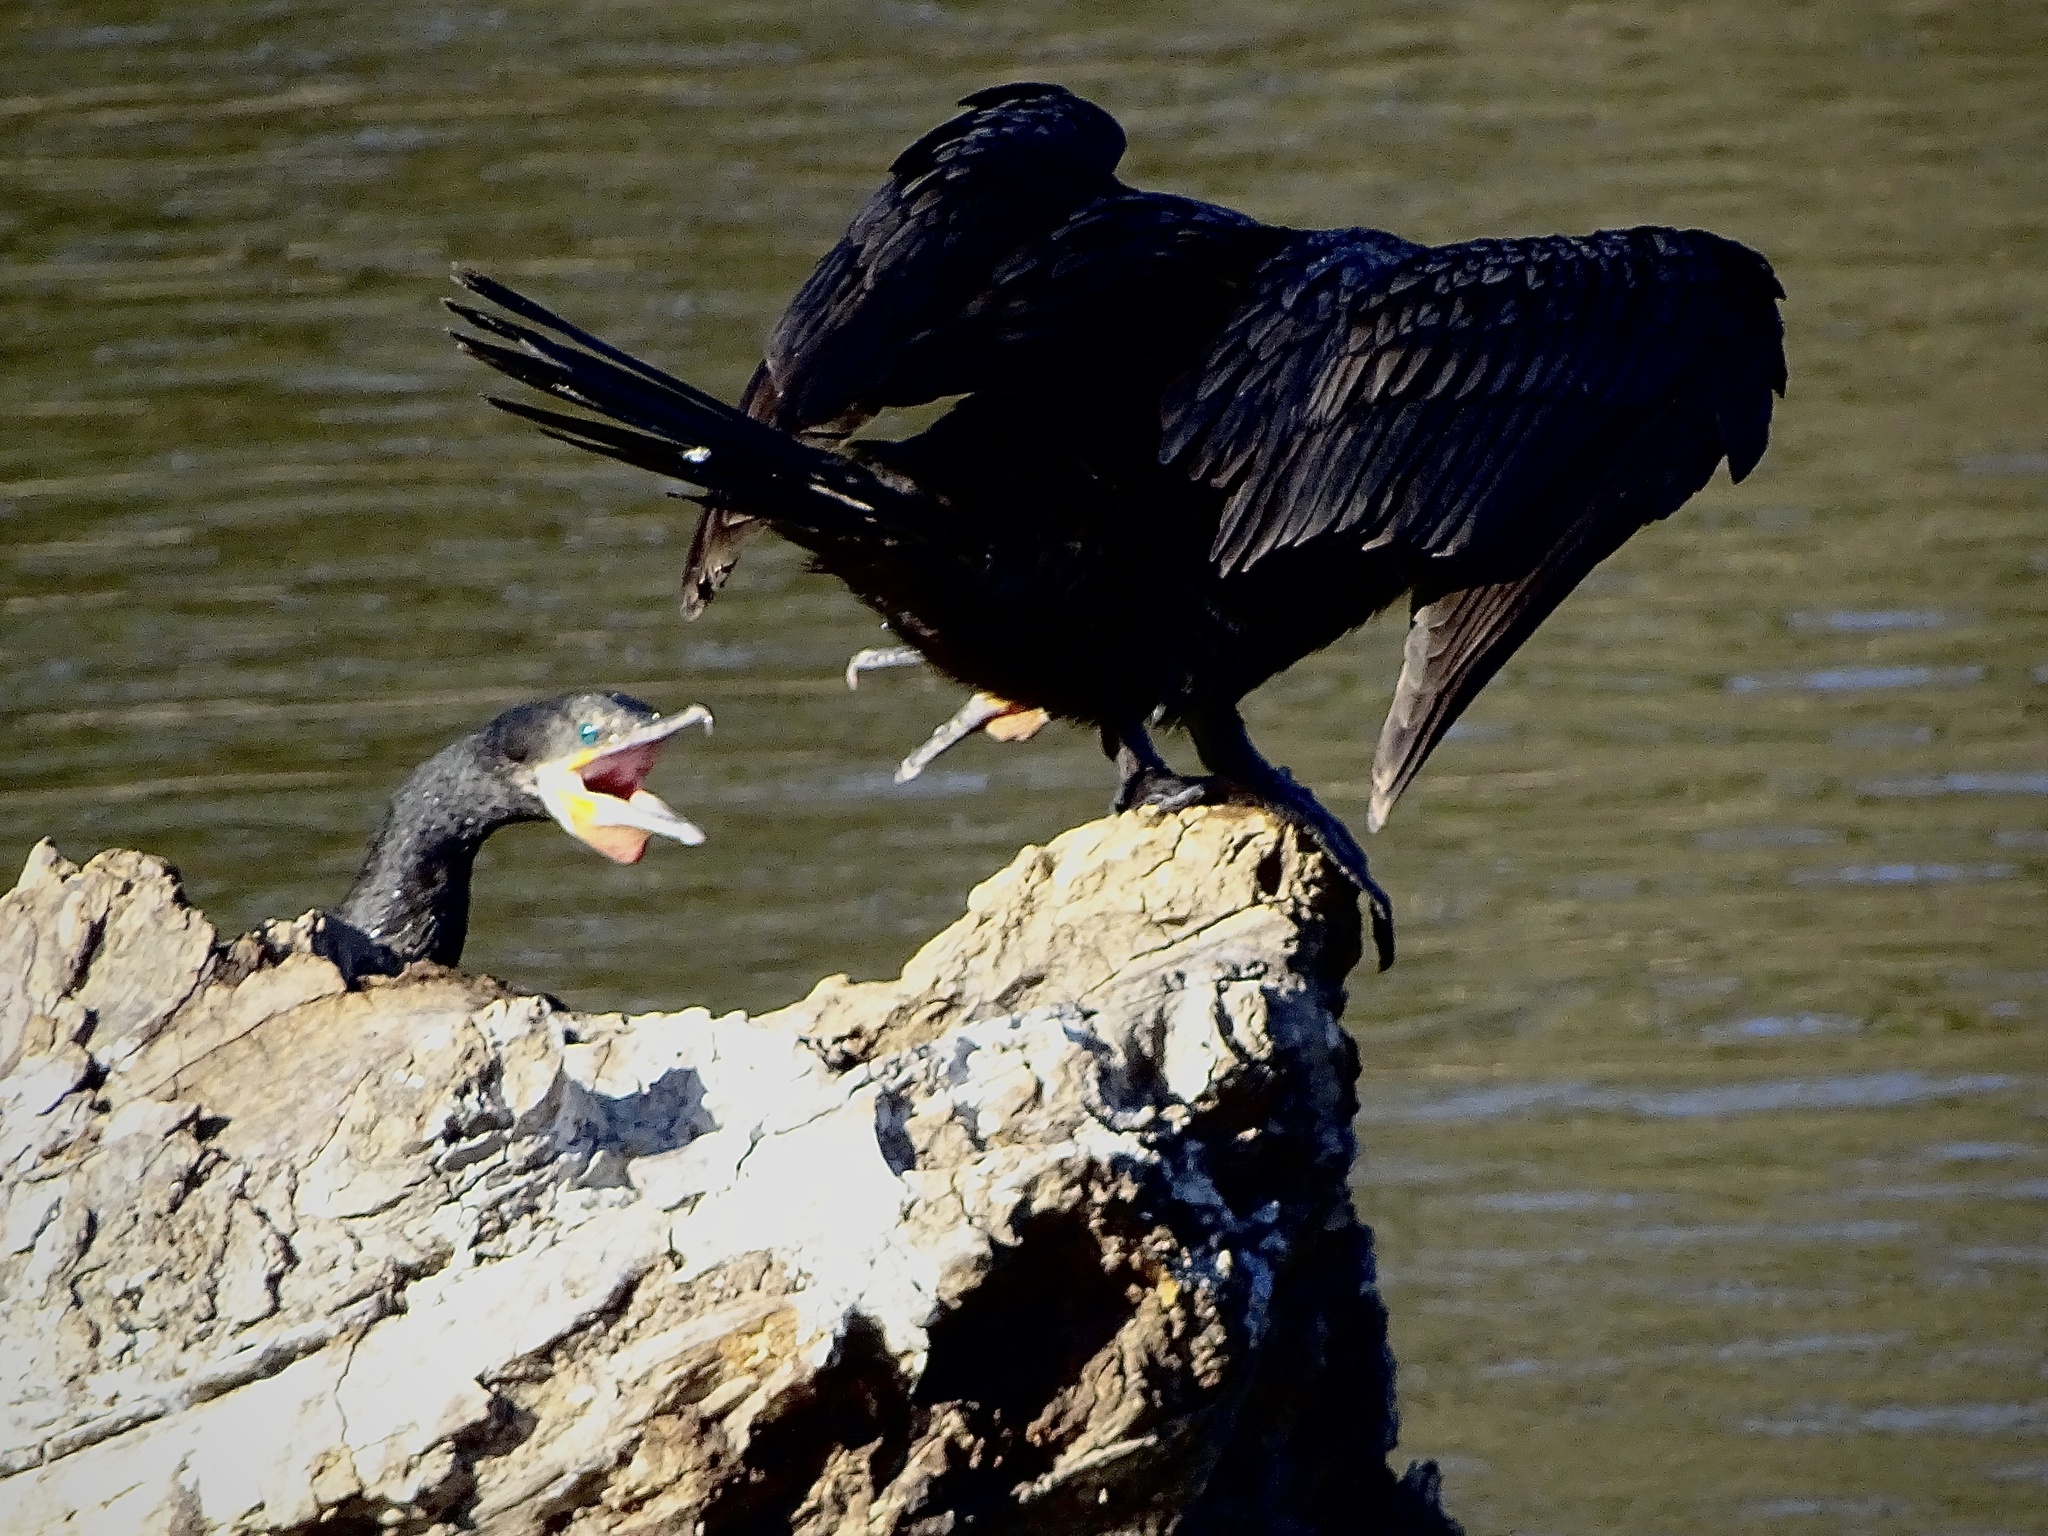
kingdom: Animalia
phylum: Chordata
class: Aves
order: Suliformes
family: Phalacrocoracidae
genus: Phalacrocorax
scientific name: Phalacrocorax brasilianus
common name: Neotropic cormorant
